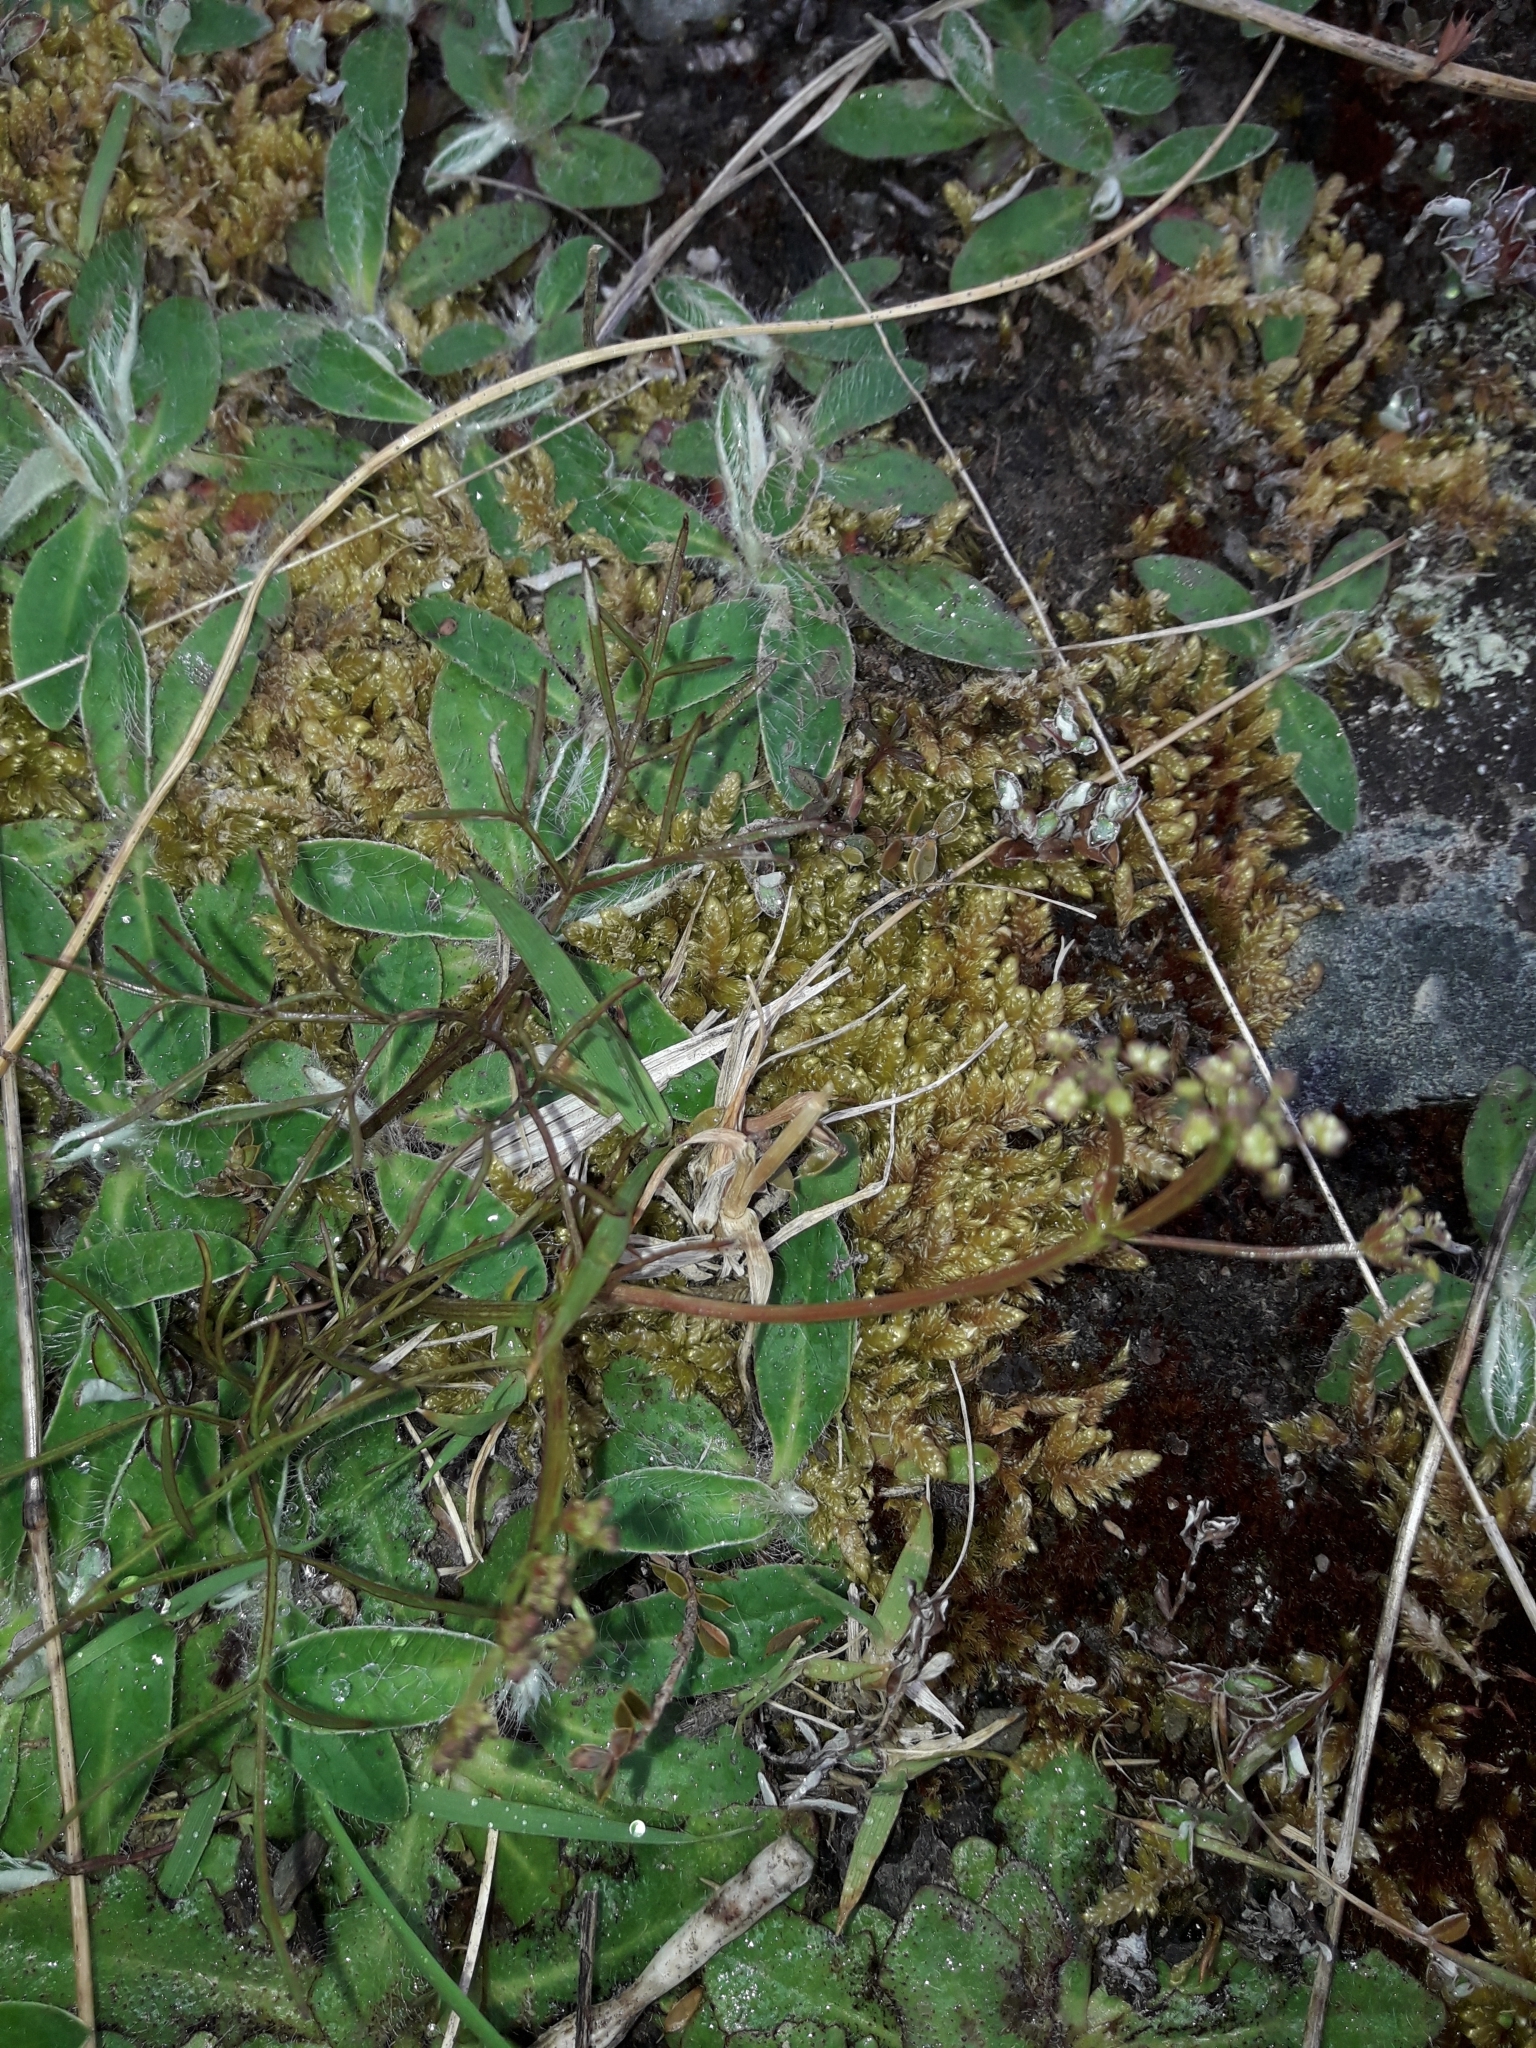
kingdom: Plantae
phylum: Tracheophyta
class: Magnoliopsida
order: Apiales
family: Apiaceae
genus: Anisotome
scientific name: Anisotome filifolia
